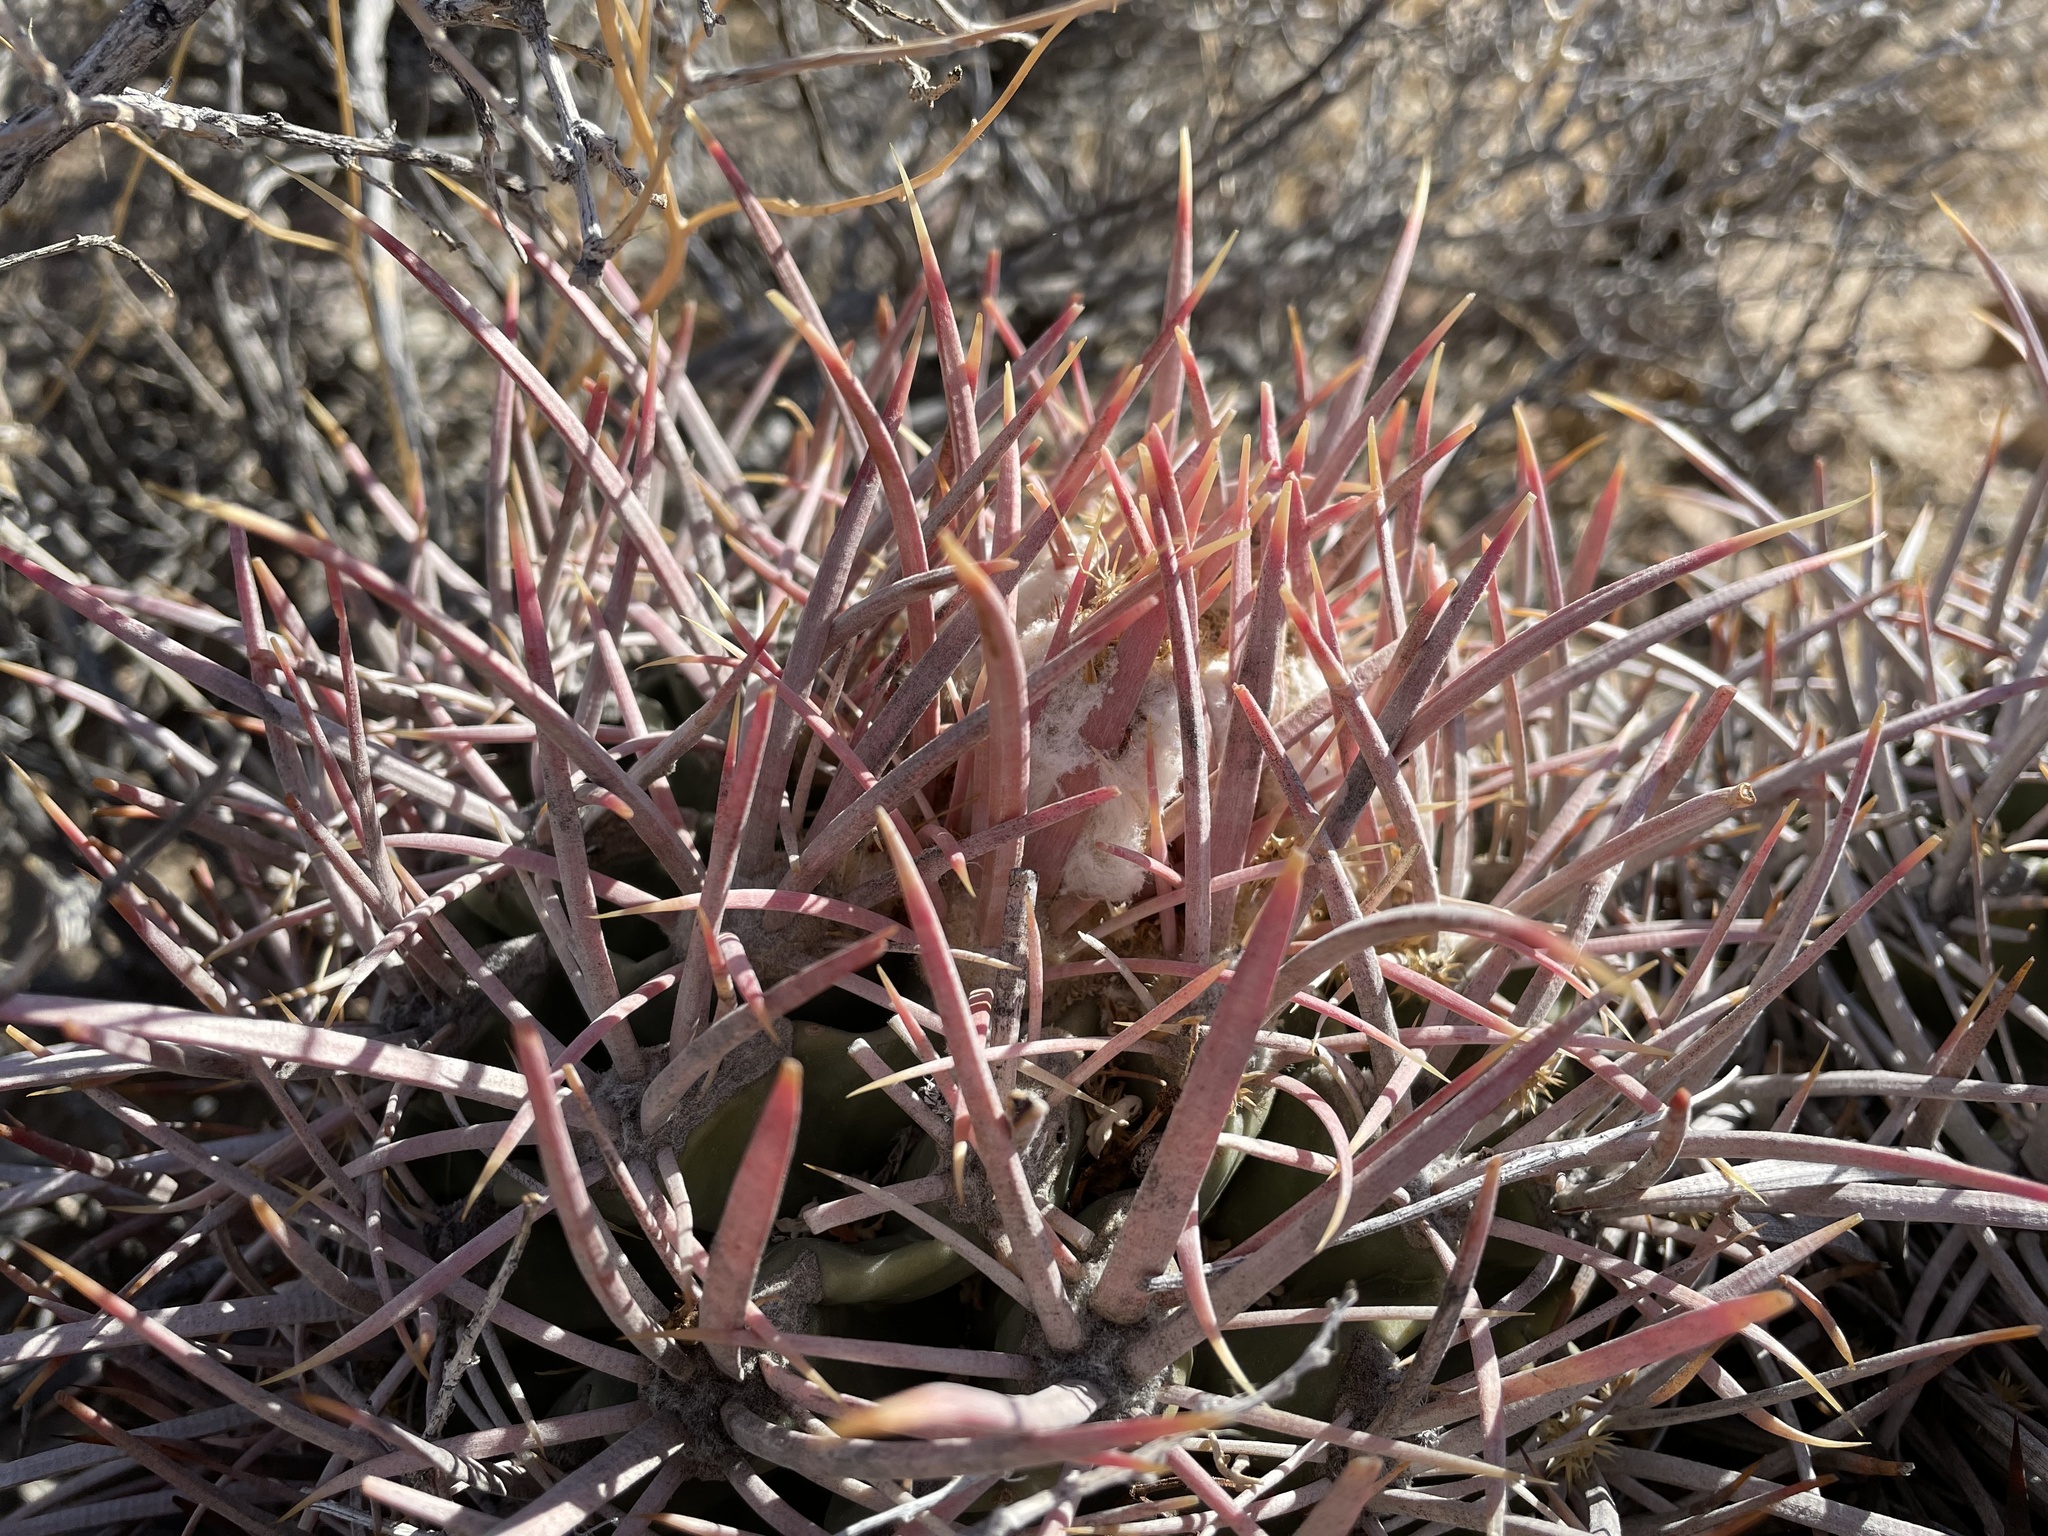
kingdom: Plantae
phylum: Tracheophyta
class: Magnoliopsida
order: Caryophyllales
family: Cactaceae
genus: Echinocactus
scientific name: Echinocactus polycephalus
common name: Cottontop cactus
